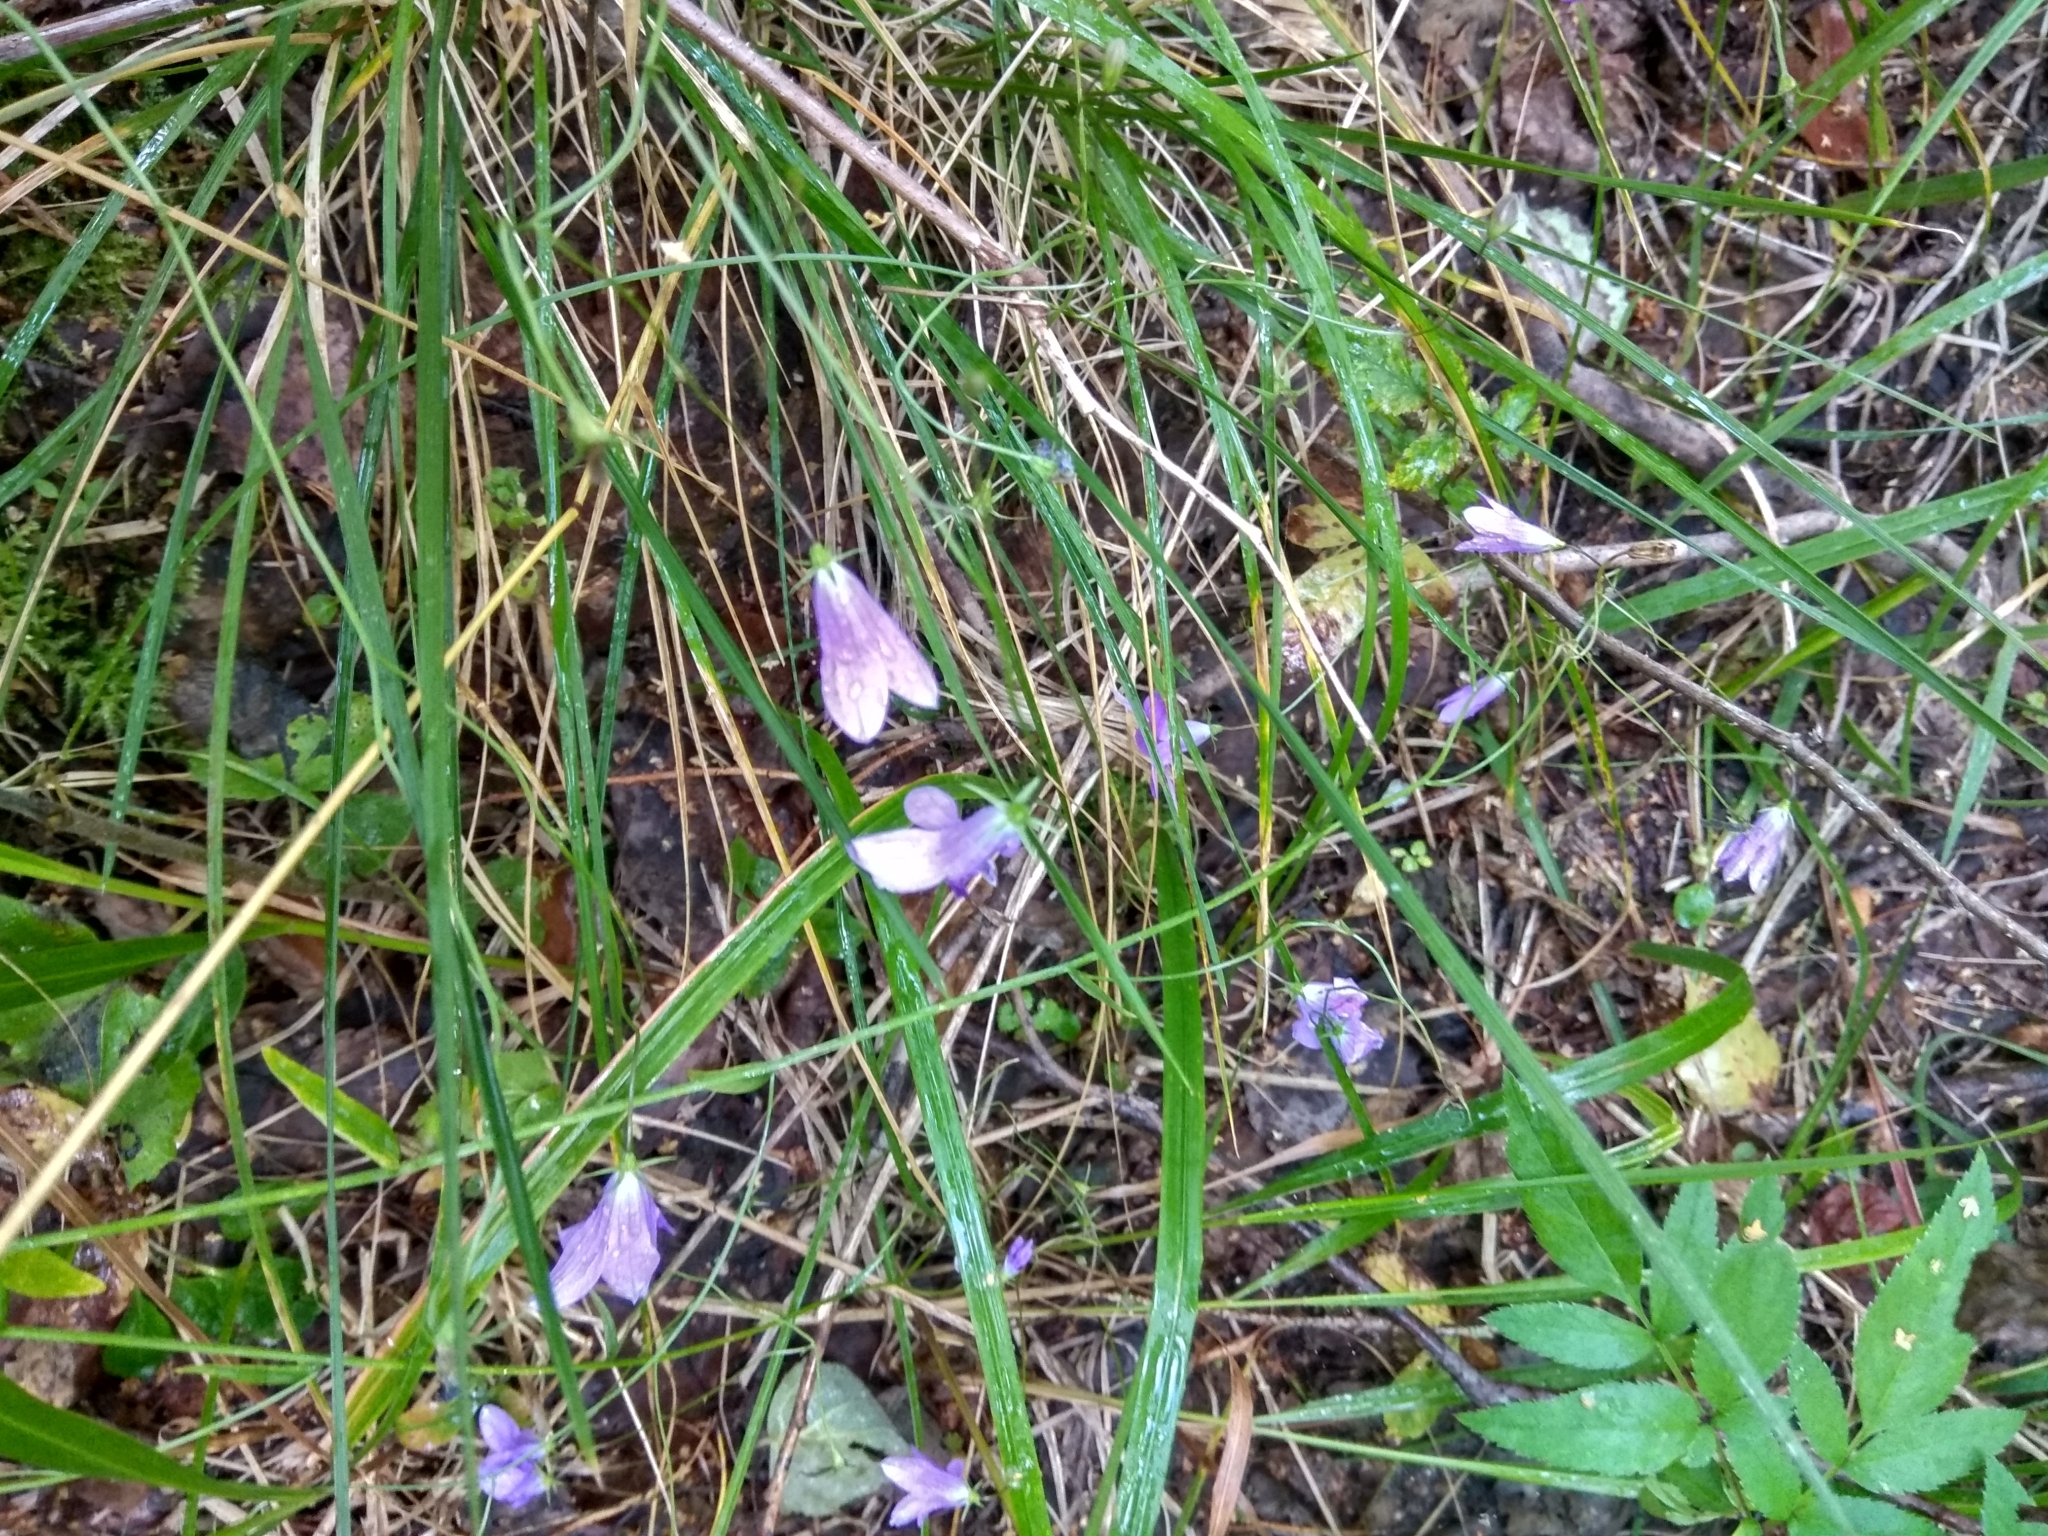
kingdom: Plantae
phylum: Tracheophyta
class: Magnoliopsida
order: Asterales
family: Campanulaceae
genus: Campanula
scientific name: Campanula patula
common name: Spreading bellflower
